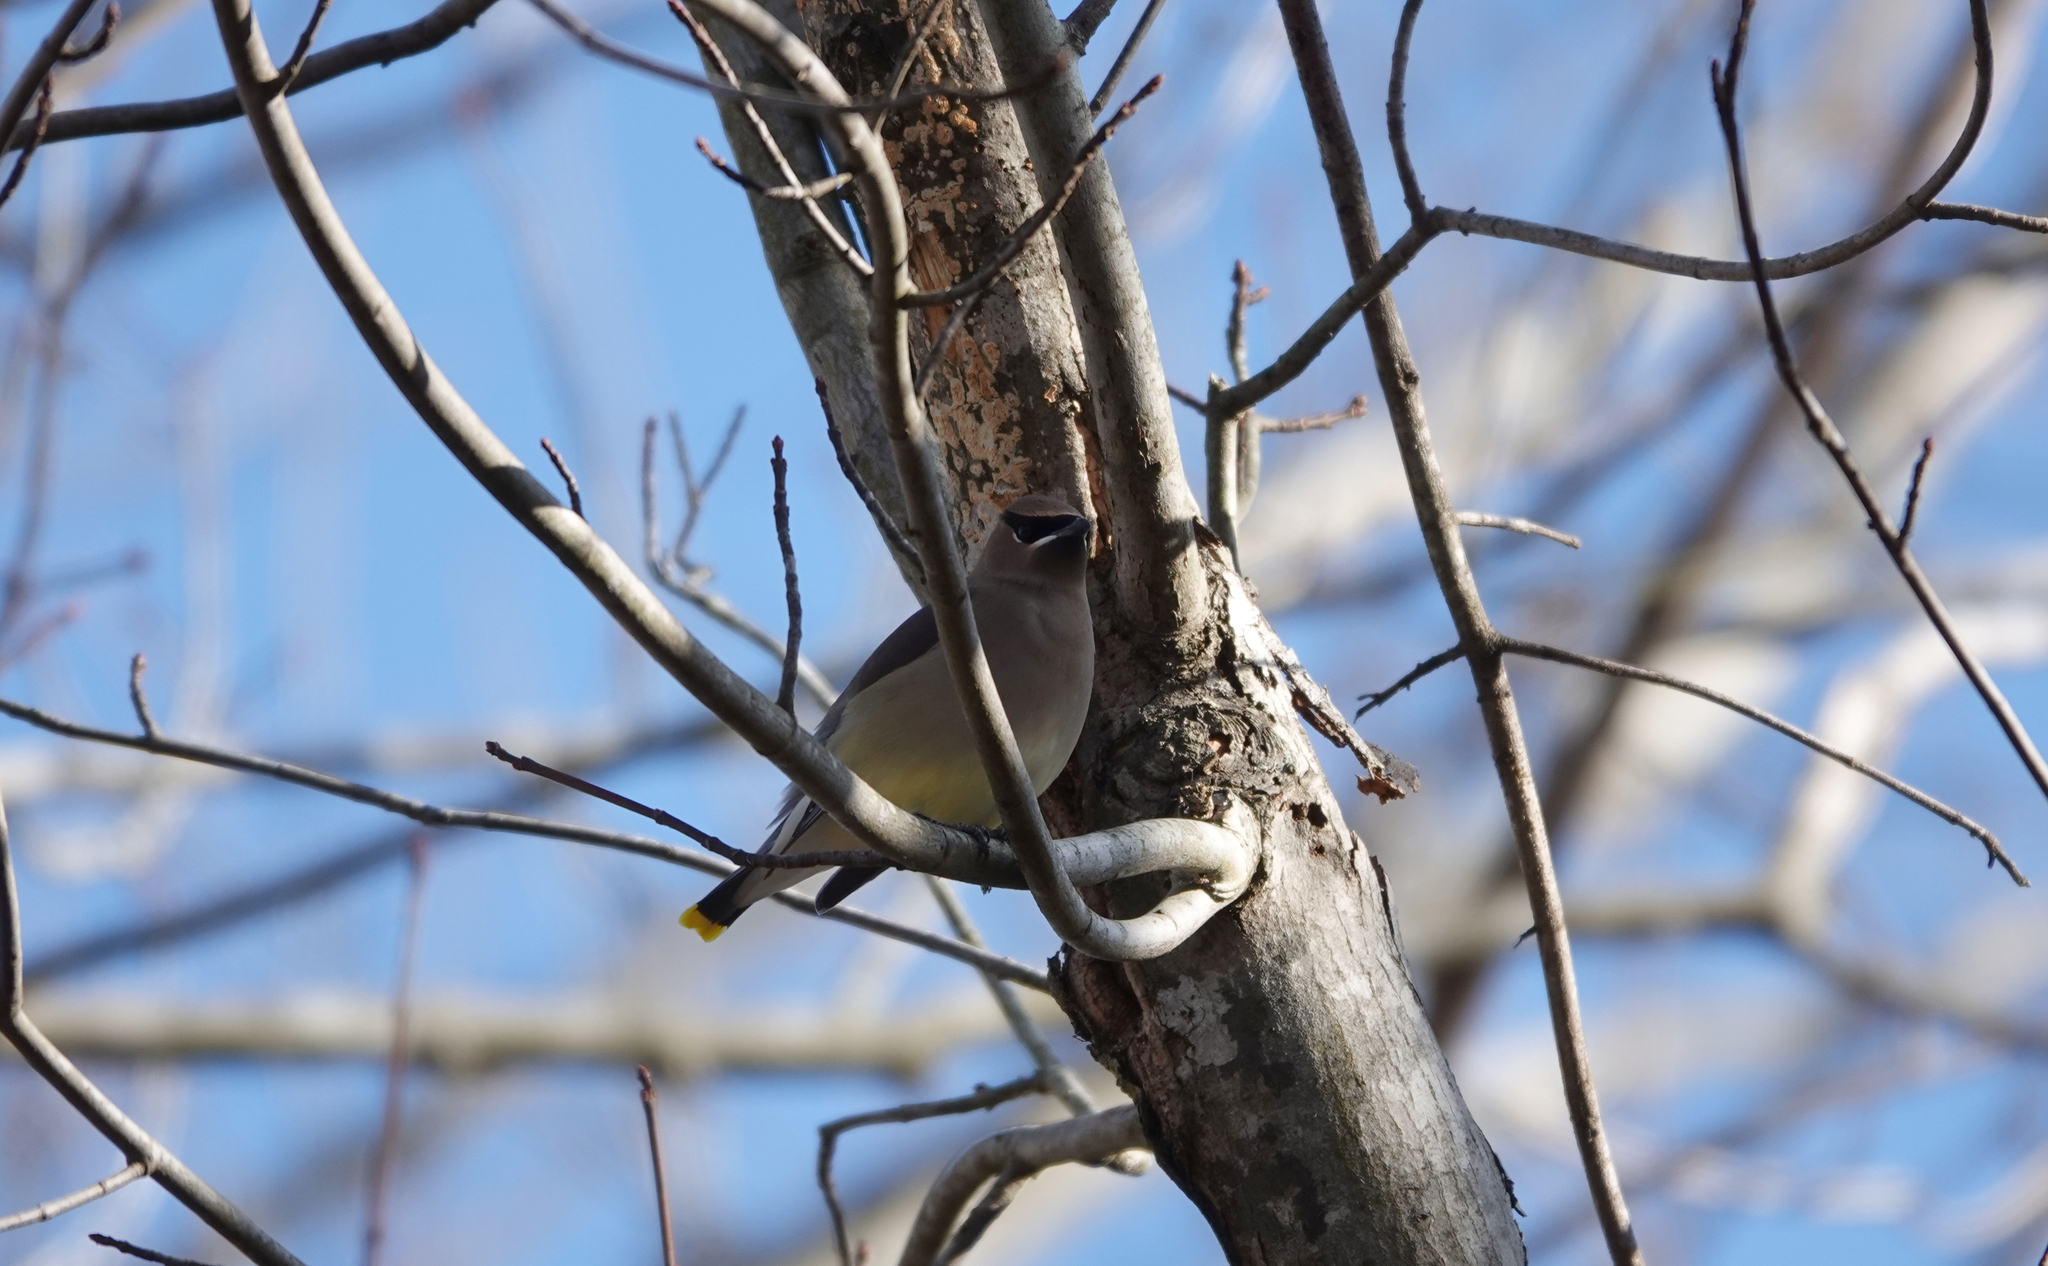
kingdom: Animalia
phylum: Chordata
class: Aves
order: Passeriformes
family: Bombycillidae
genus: Bombycilla
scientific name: Bombycilla cedrorum
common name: Cedar waxwing
